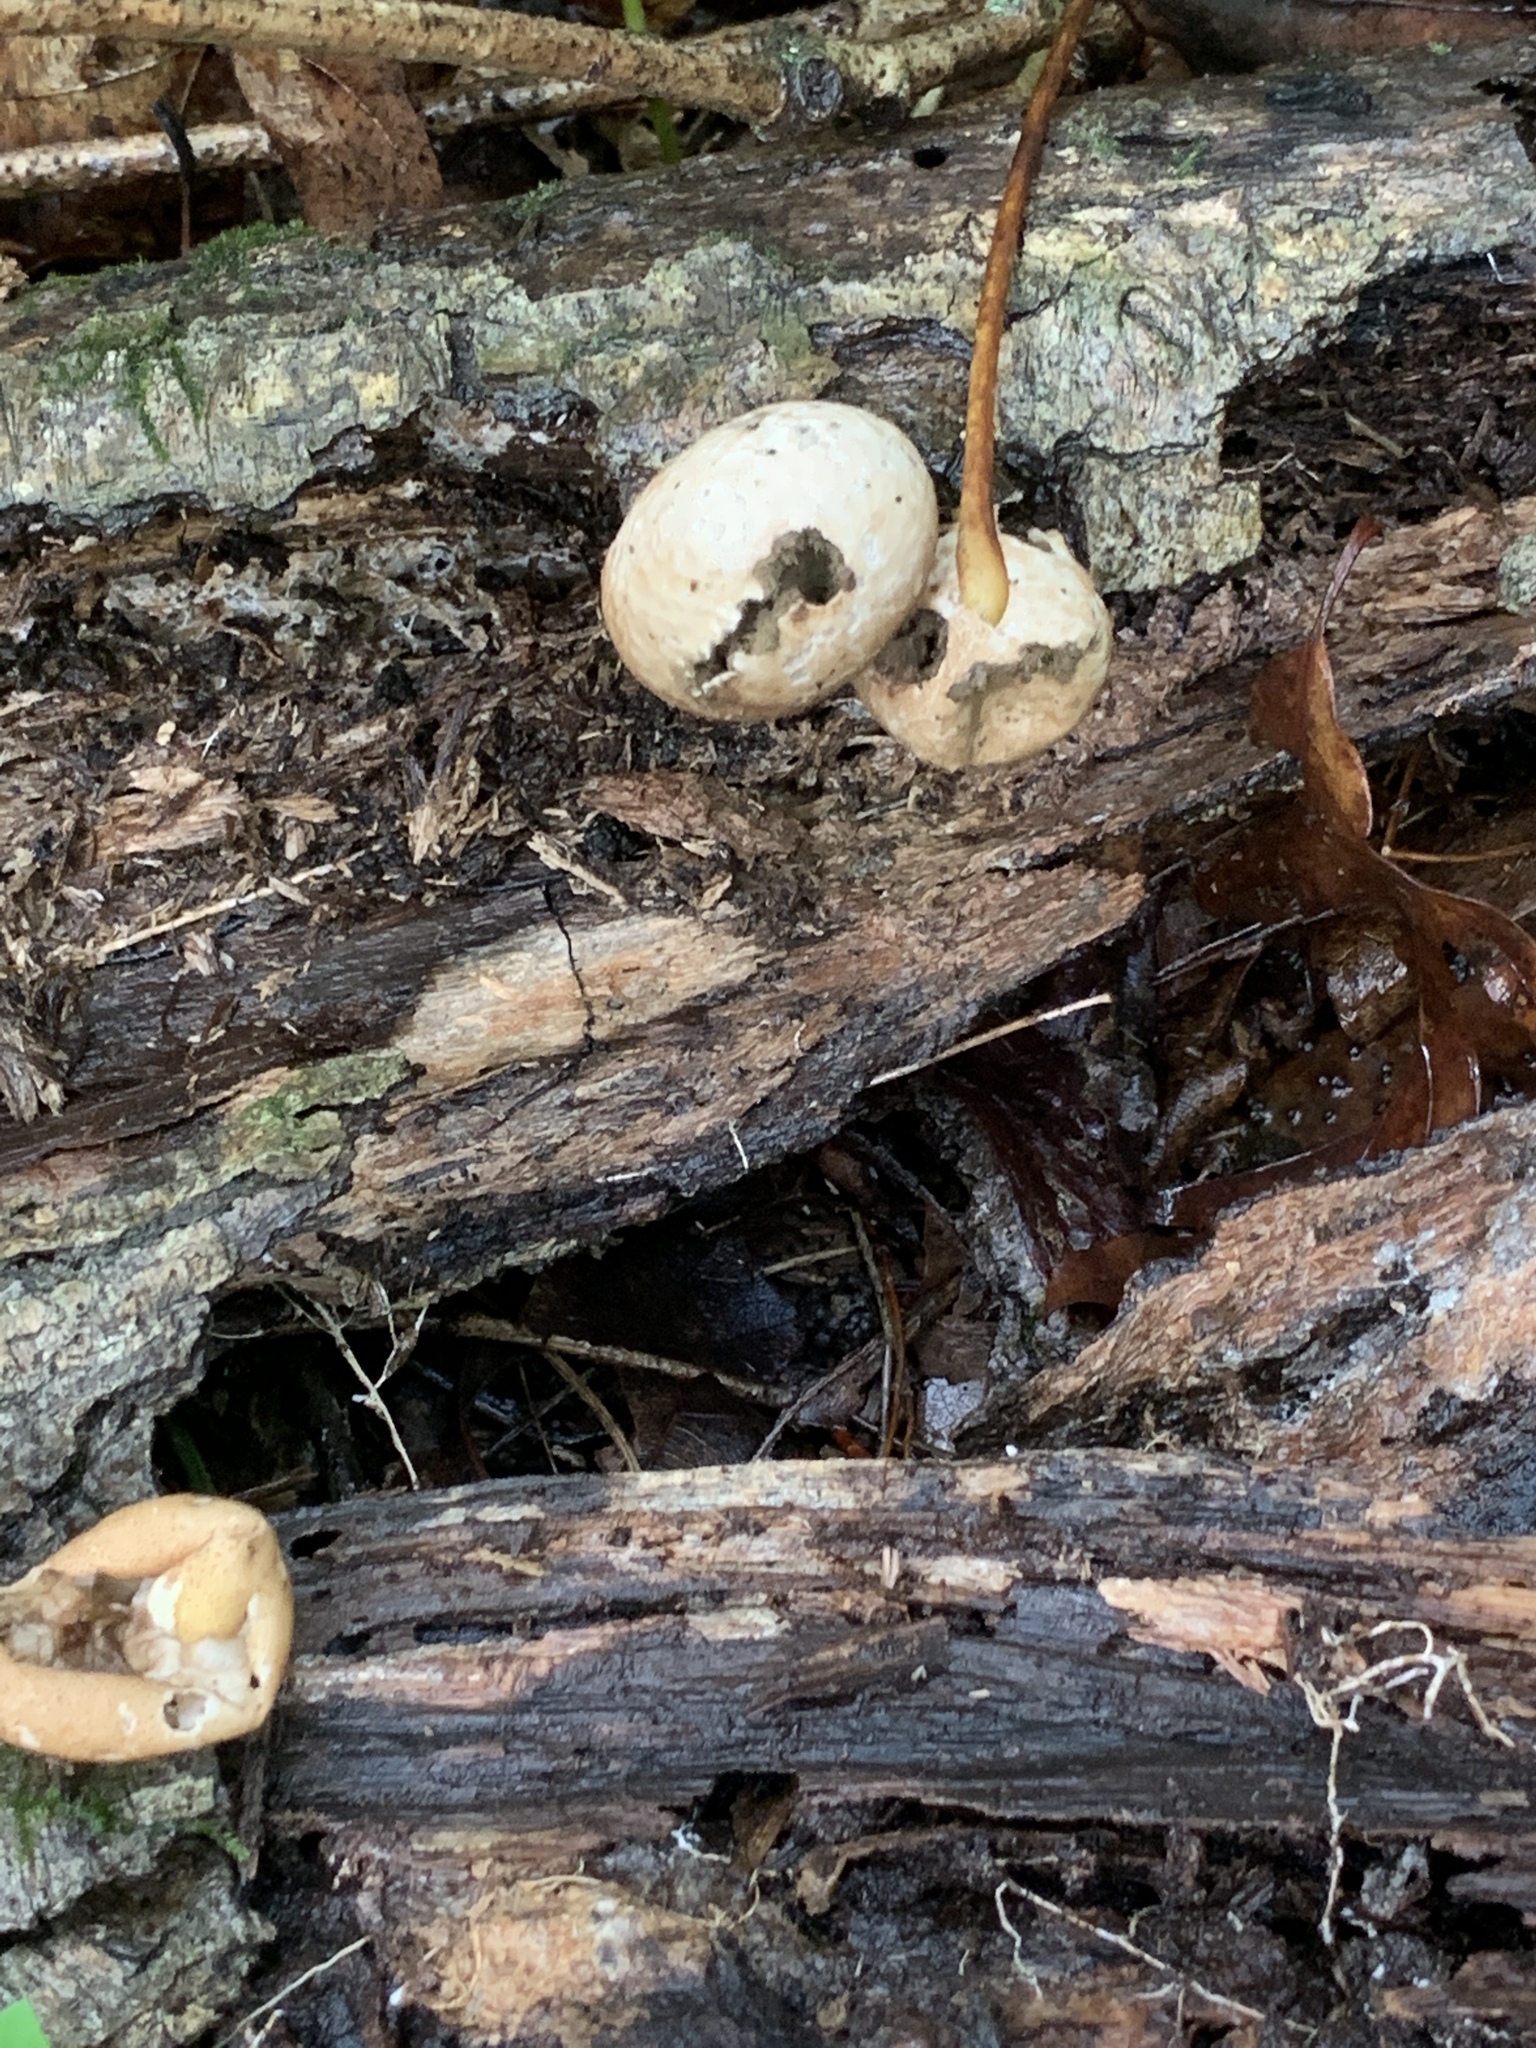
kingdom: Fungi
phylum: Basidiomycota
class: Agaricomycetes
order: Agaricales
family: Lycoperdaceae
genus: Apioperdon
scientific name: Apioperdon pyriforme
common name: Pear-shaped puffball
